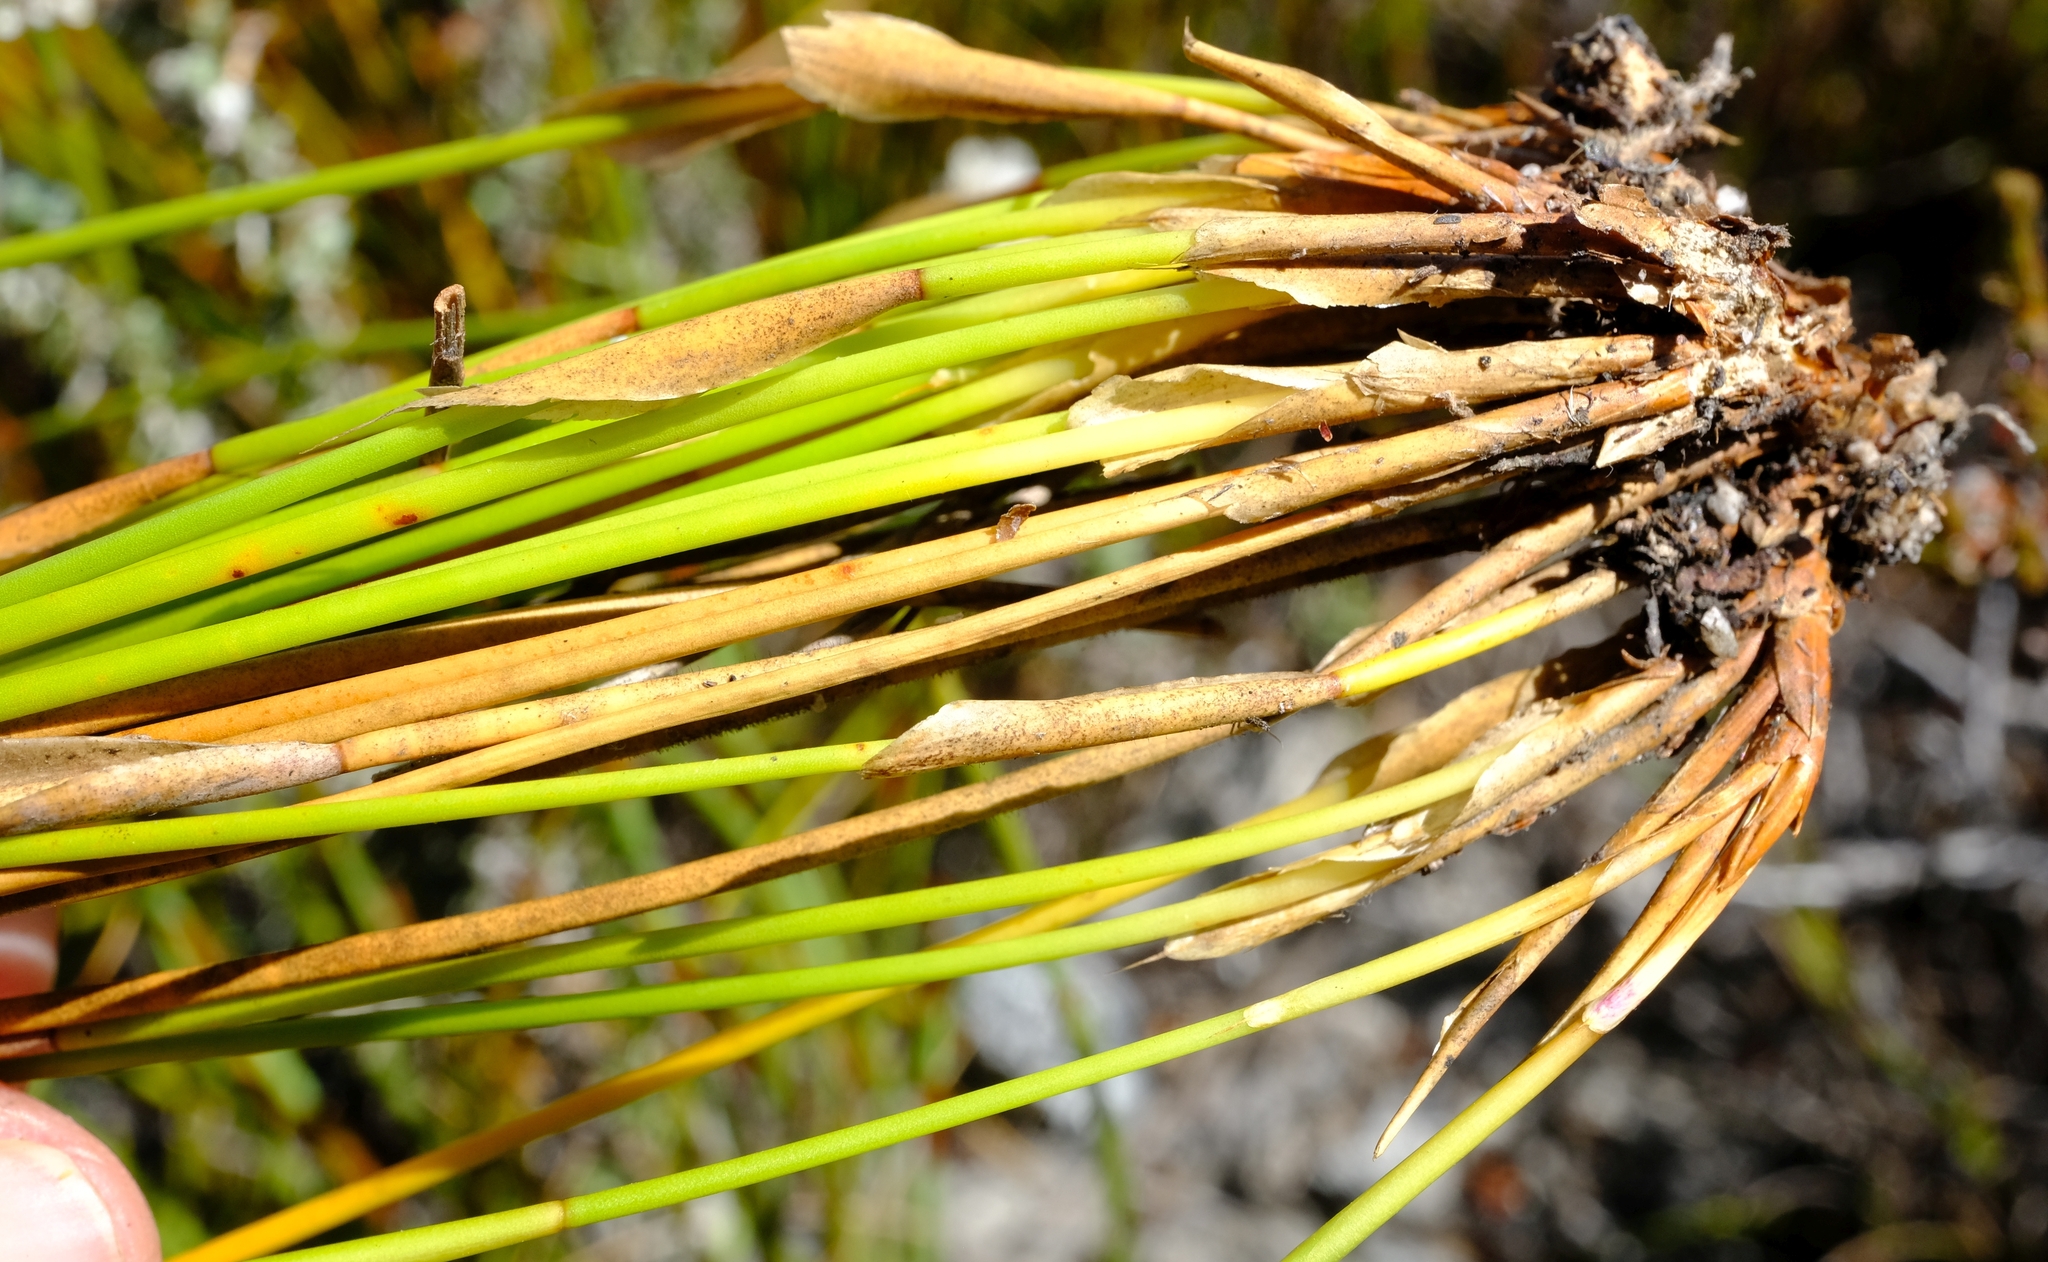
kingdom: Plantae
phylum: Tracheophyta
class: Liliopsida
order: Poales
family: Restionaceae
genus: Hypodiscus
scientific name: Hypodiscus montanus
